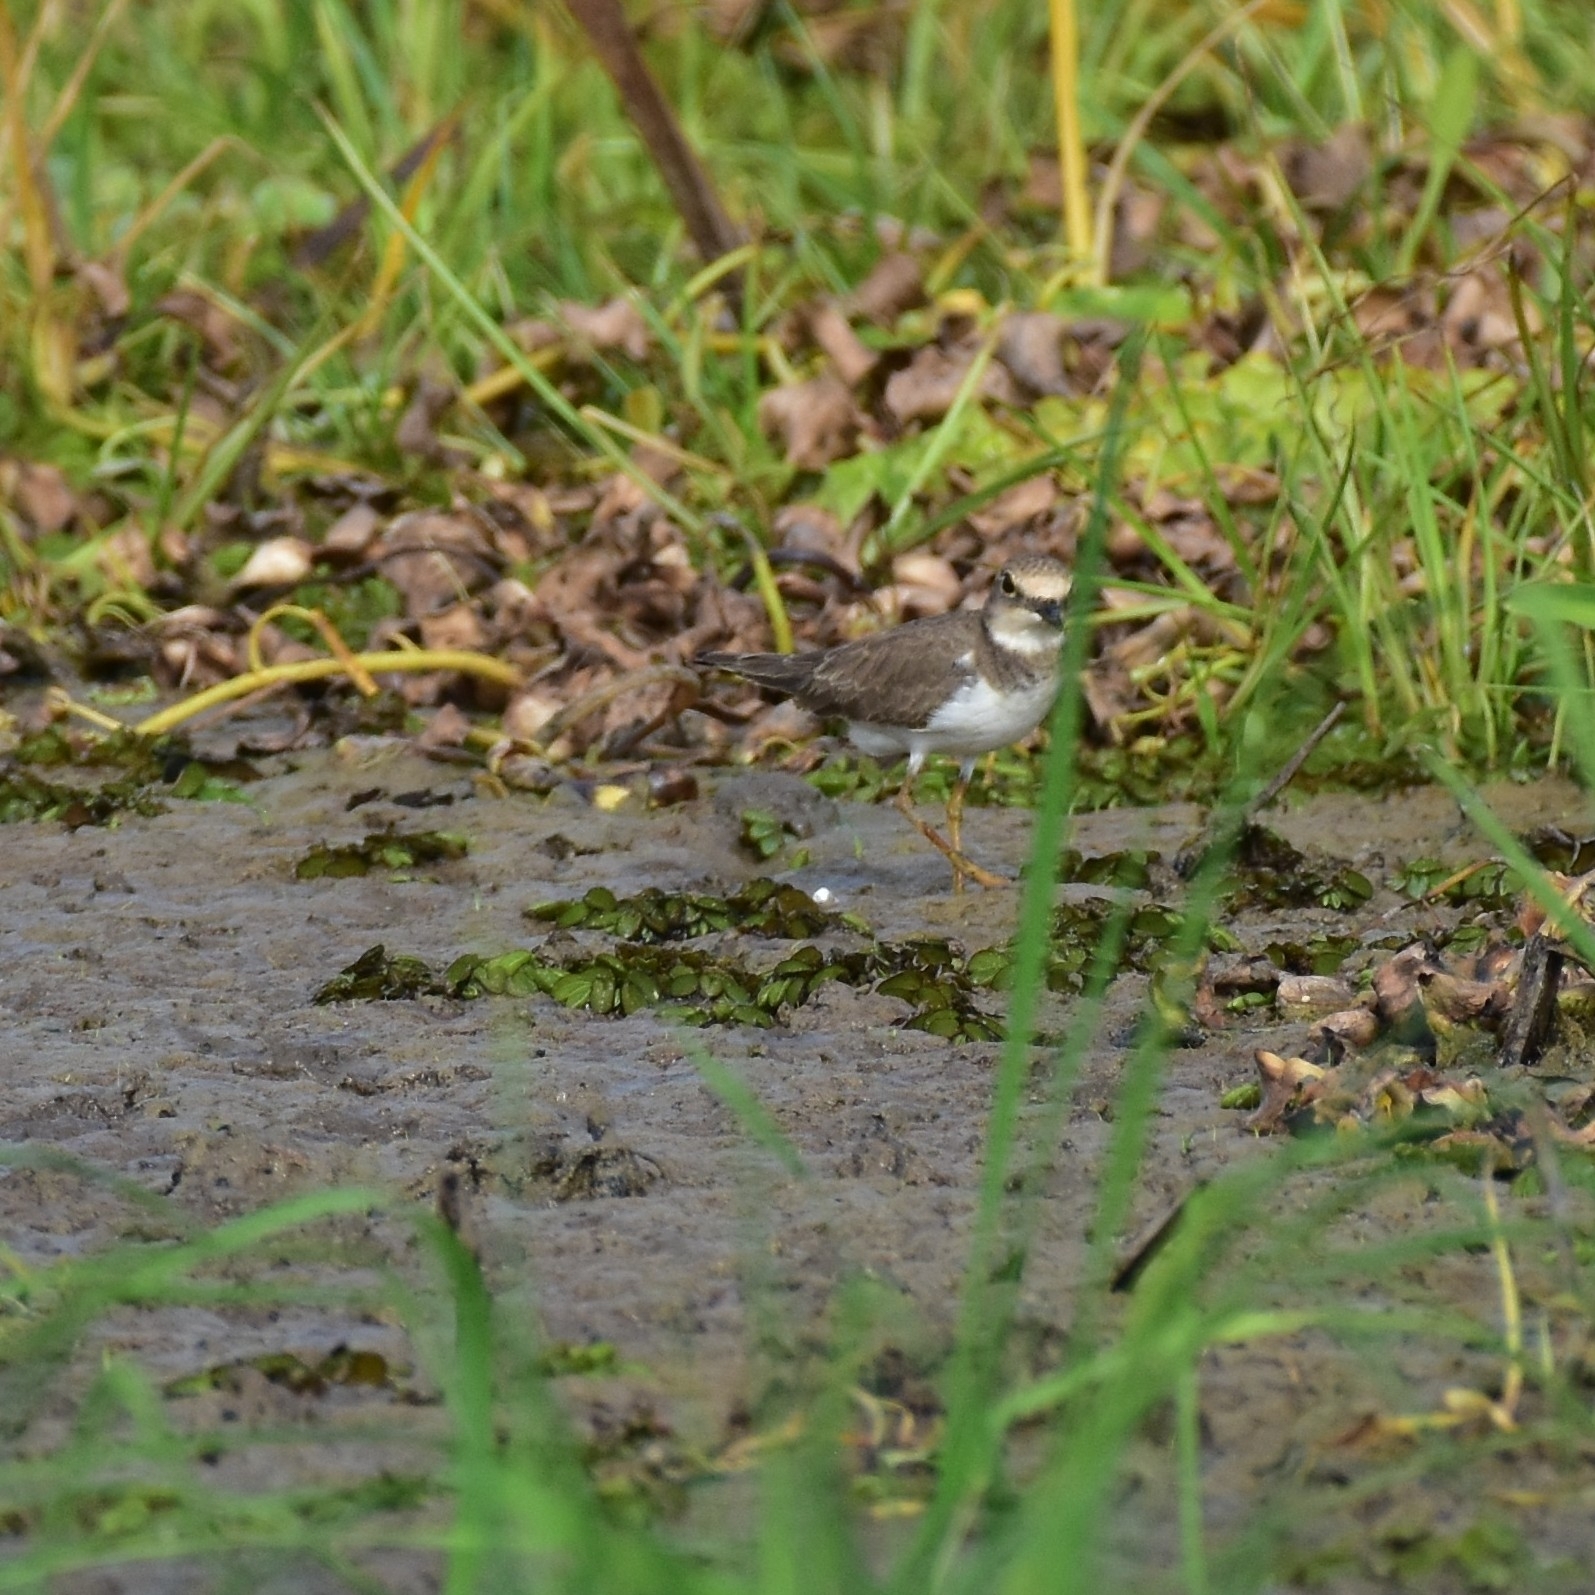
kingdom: Animalia
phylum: Chordata
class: Aves
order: Charadriiformes
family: Charadriidae
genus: Charadrius
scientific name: Charadrius dubius
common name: Little ringed plover
